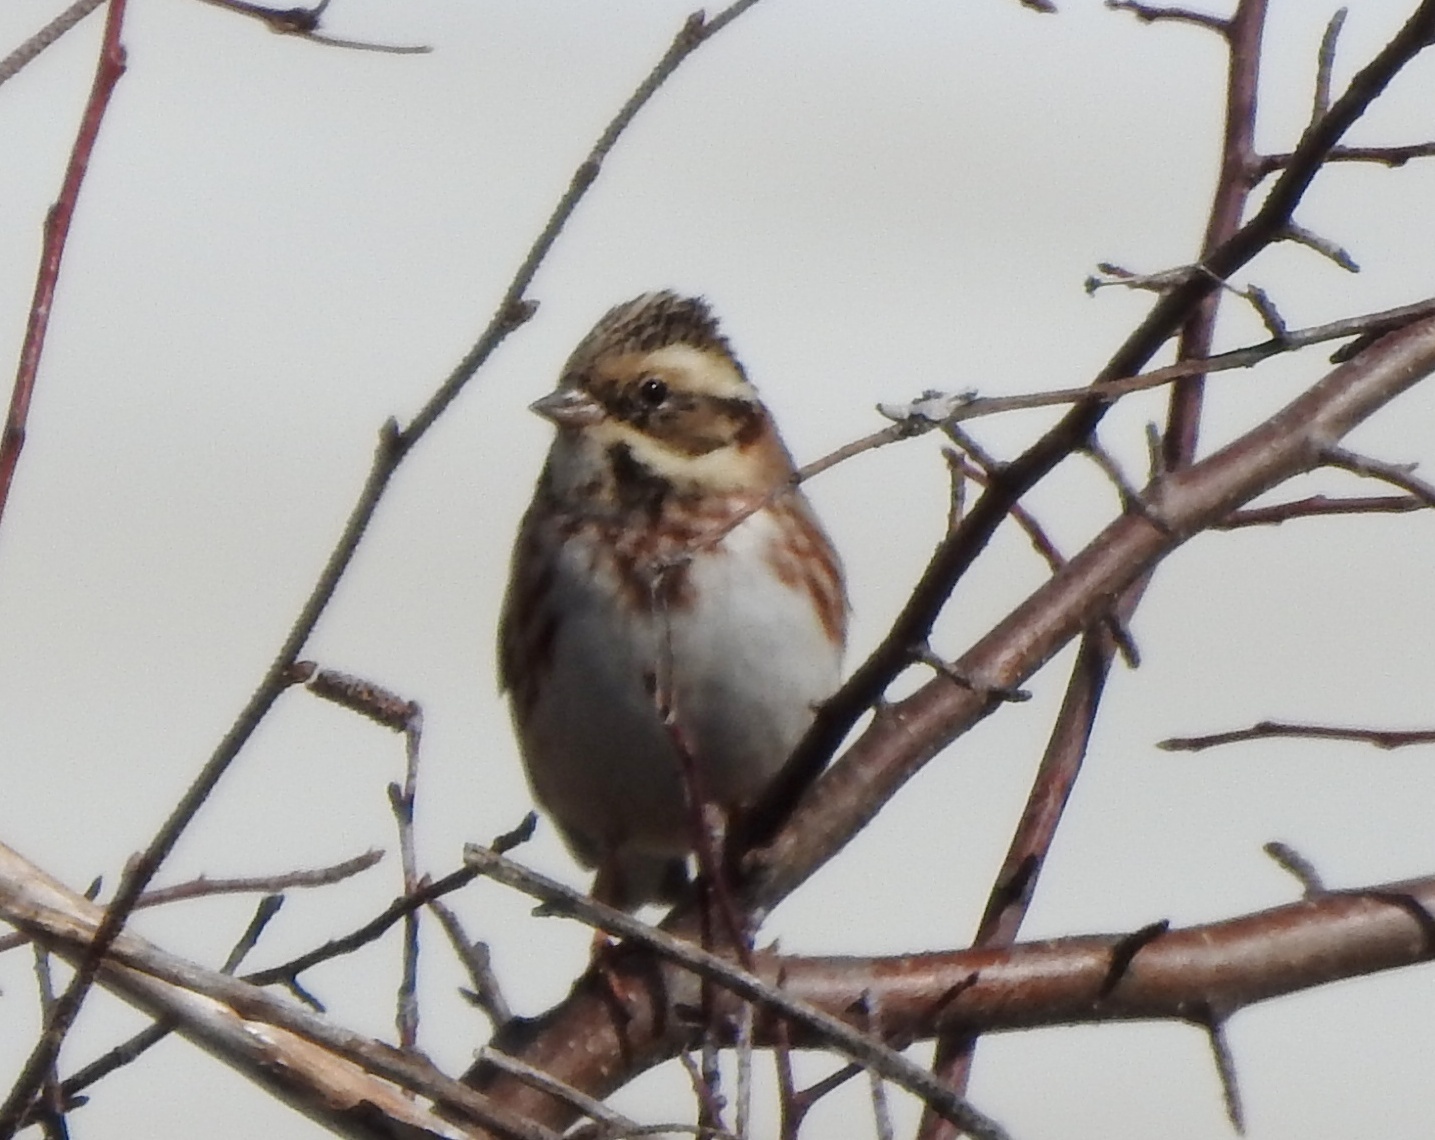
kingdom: Animalia
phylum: Chordata
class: Aves
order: Passeriformes
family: Emberizidae
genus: Emberiza
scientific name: Emberiza rustica
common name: Rustic bunting
